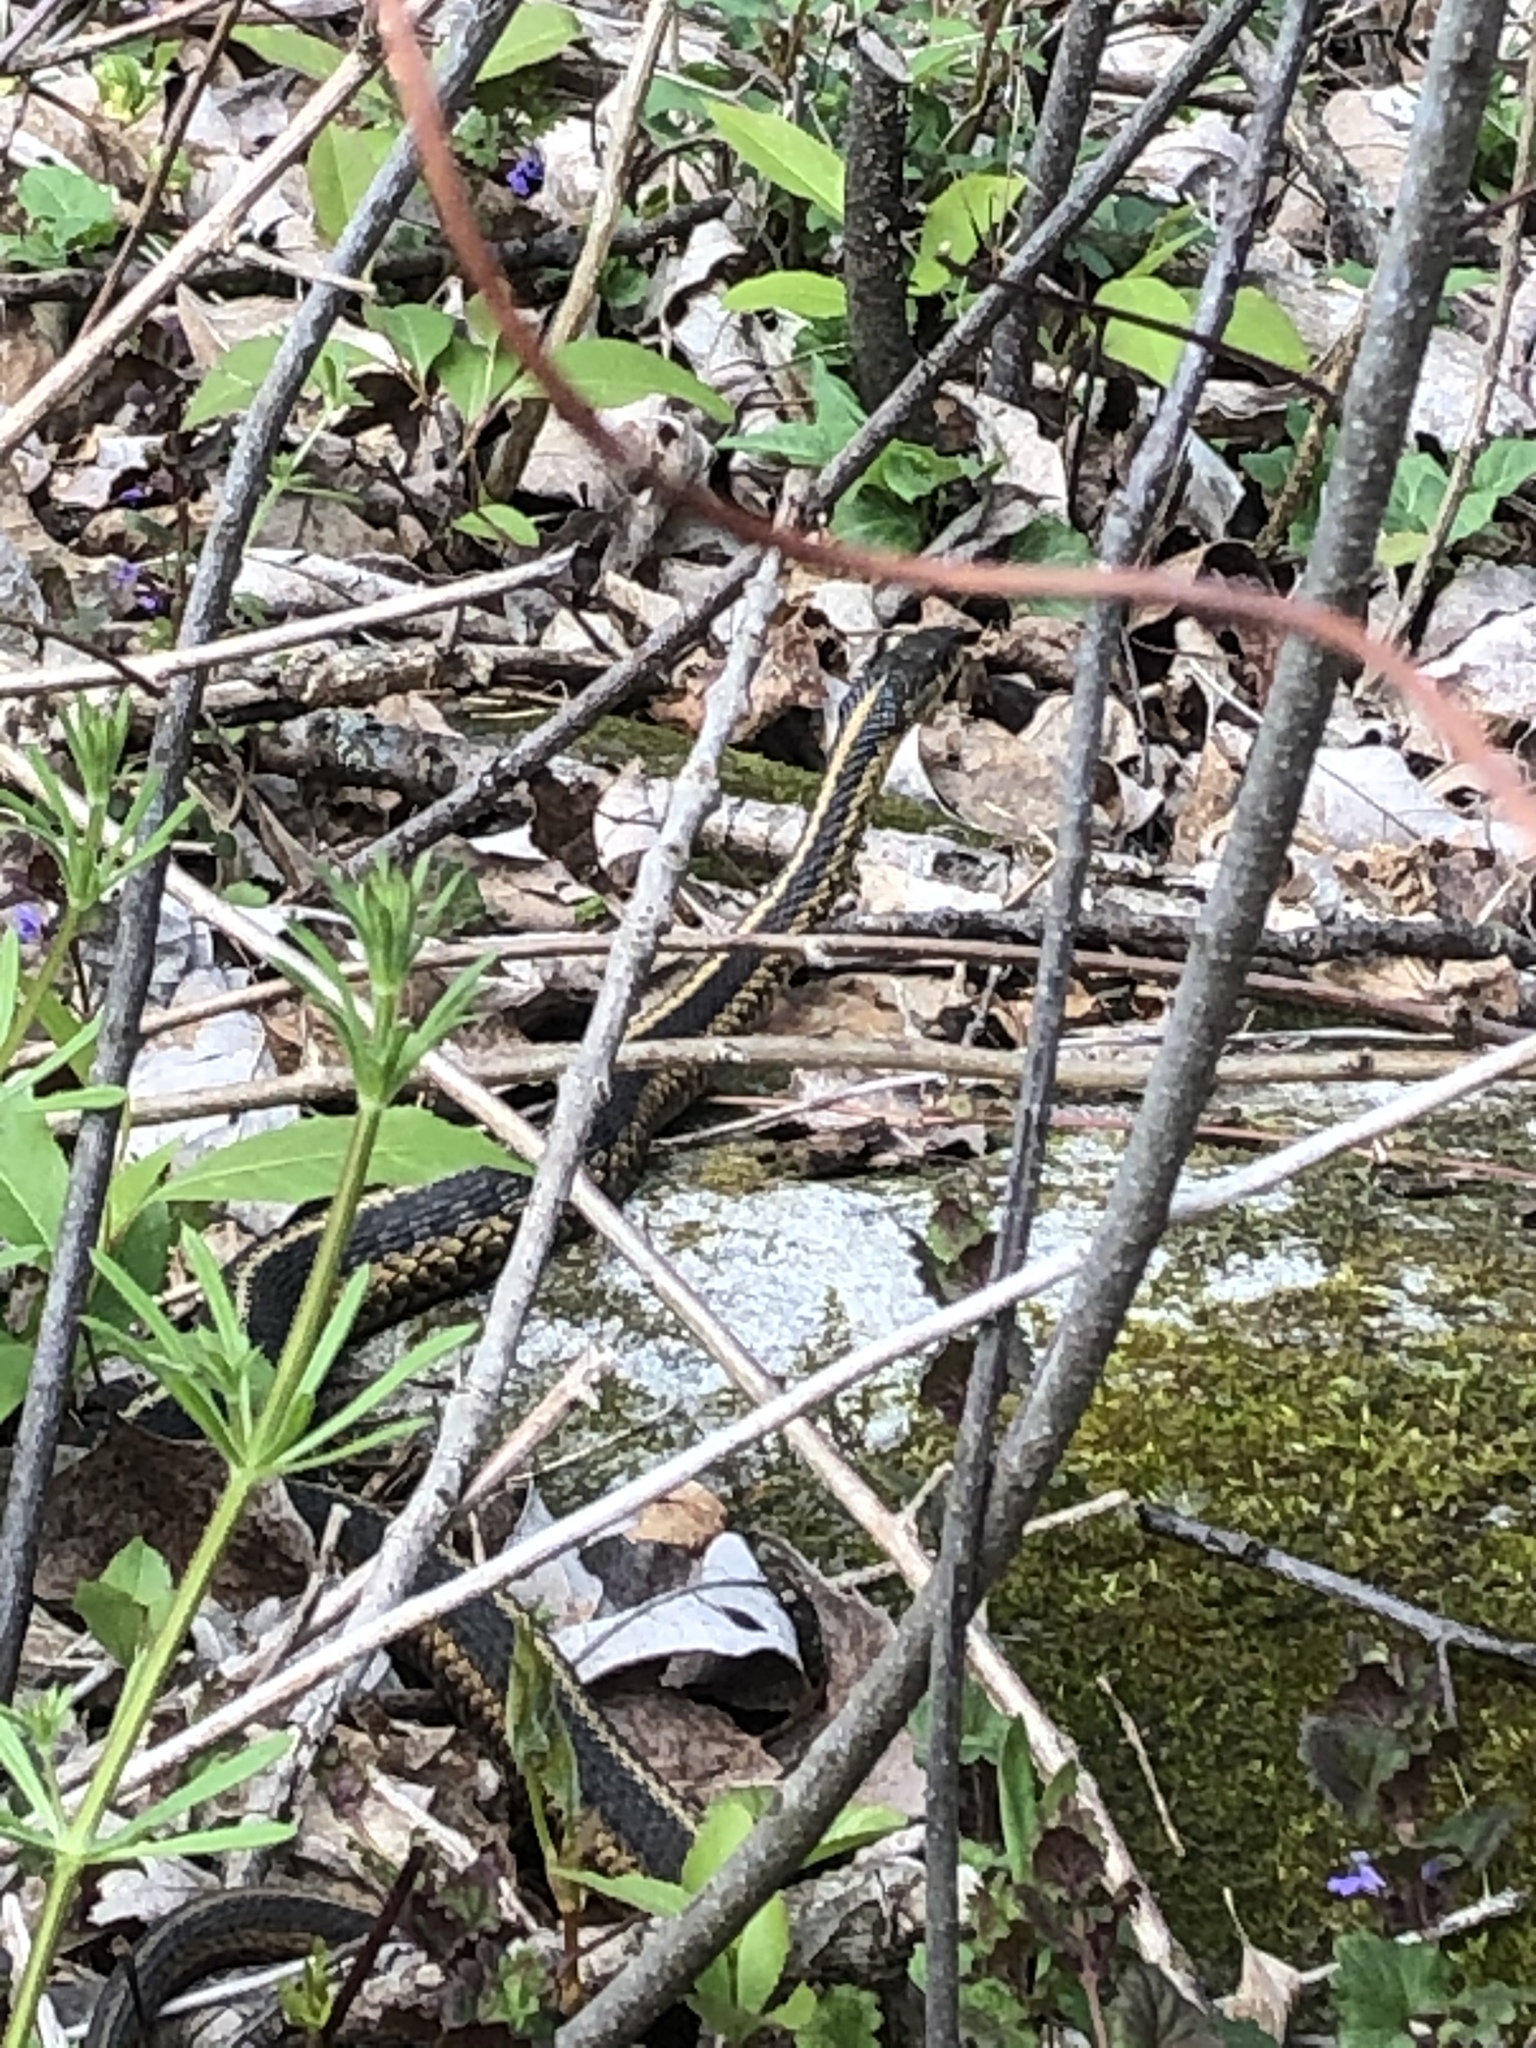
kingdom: Animalia
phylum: Chordata
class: Squamata
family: Colubridae
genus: Thamnophis
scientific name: Thamnophis sirtalis
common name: Common garter snake
